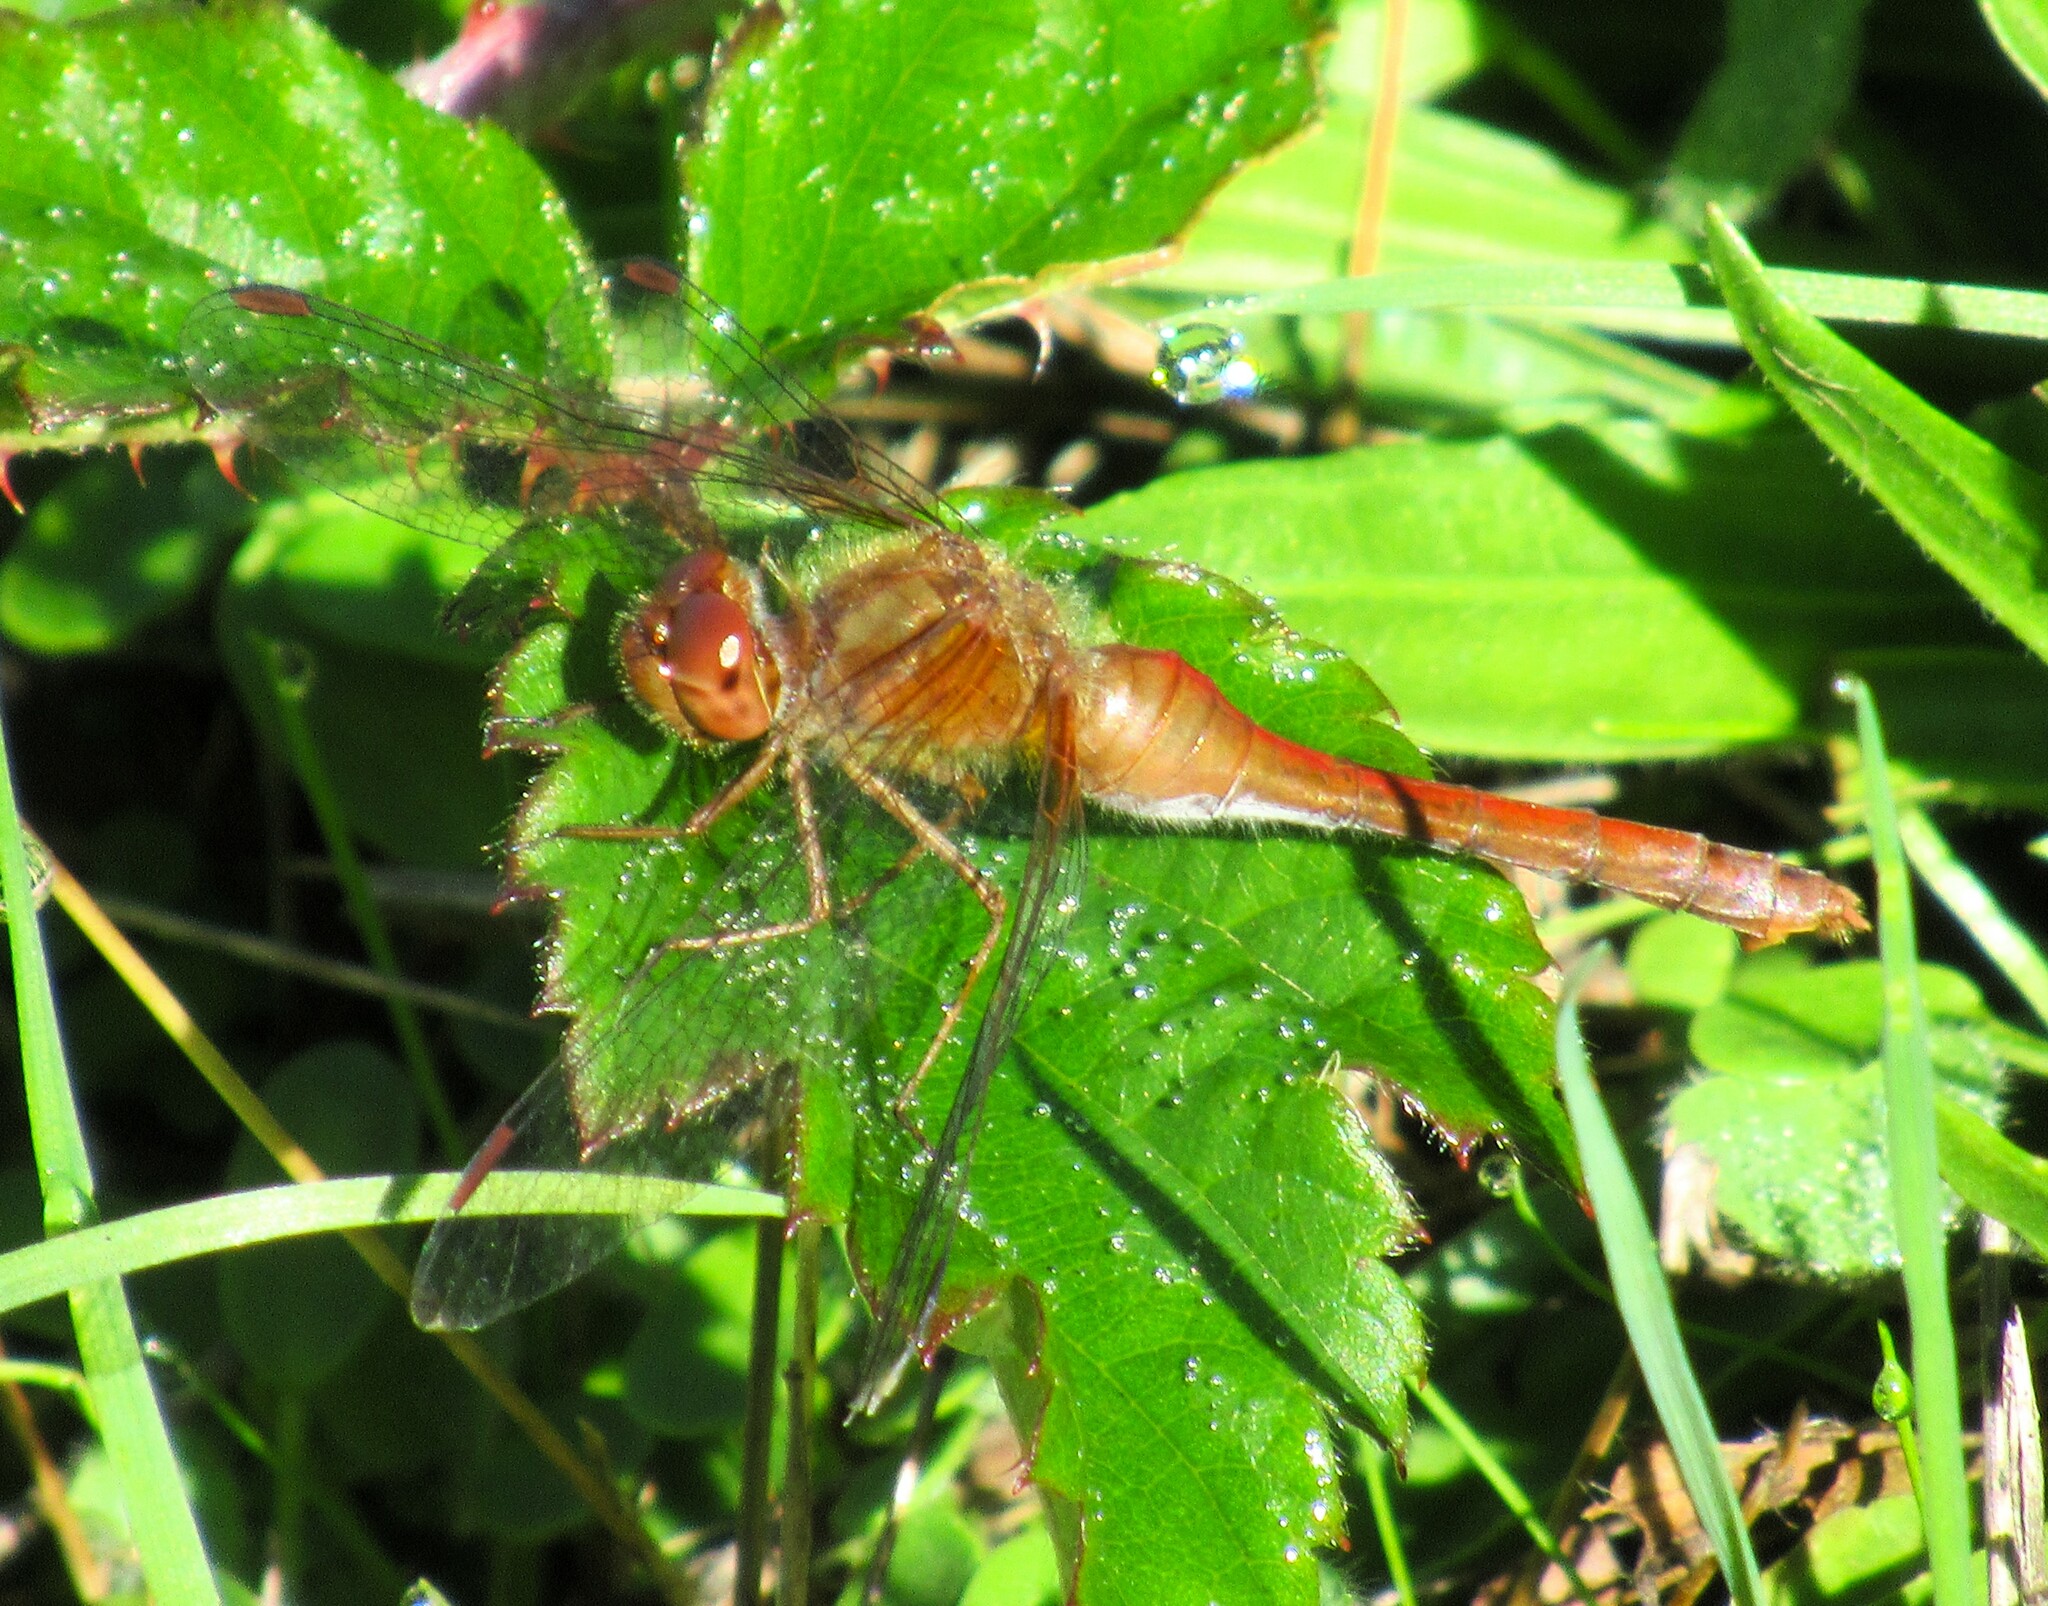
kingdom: Animalia
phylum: Arthropoda
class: Insecta
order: Odonata
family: Libellulidae
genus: Sympetrum
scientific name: Sympetrum vicinum
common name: Autumn meadowhawk
